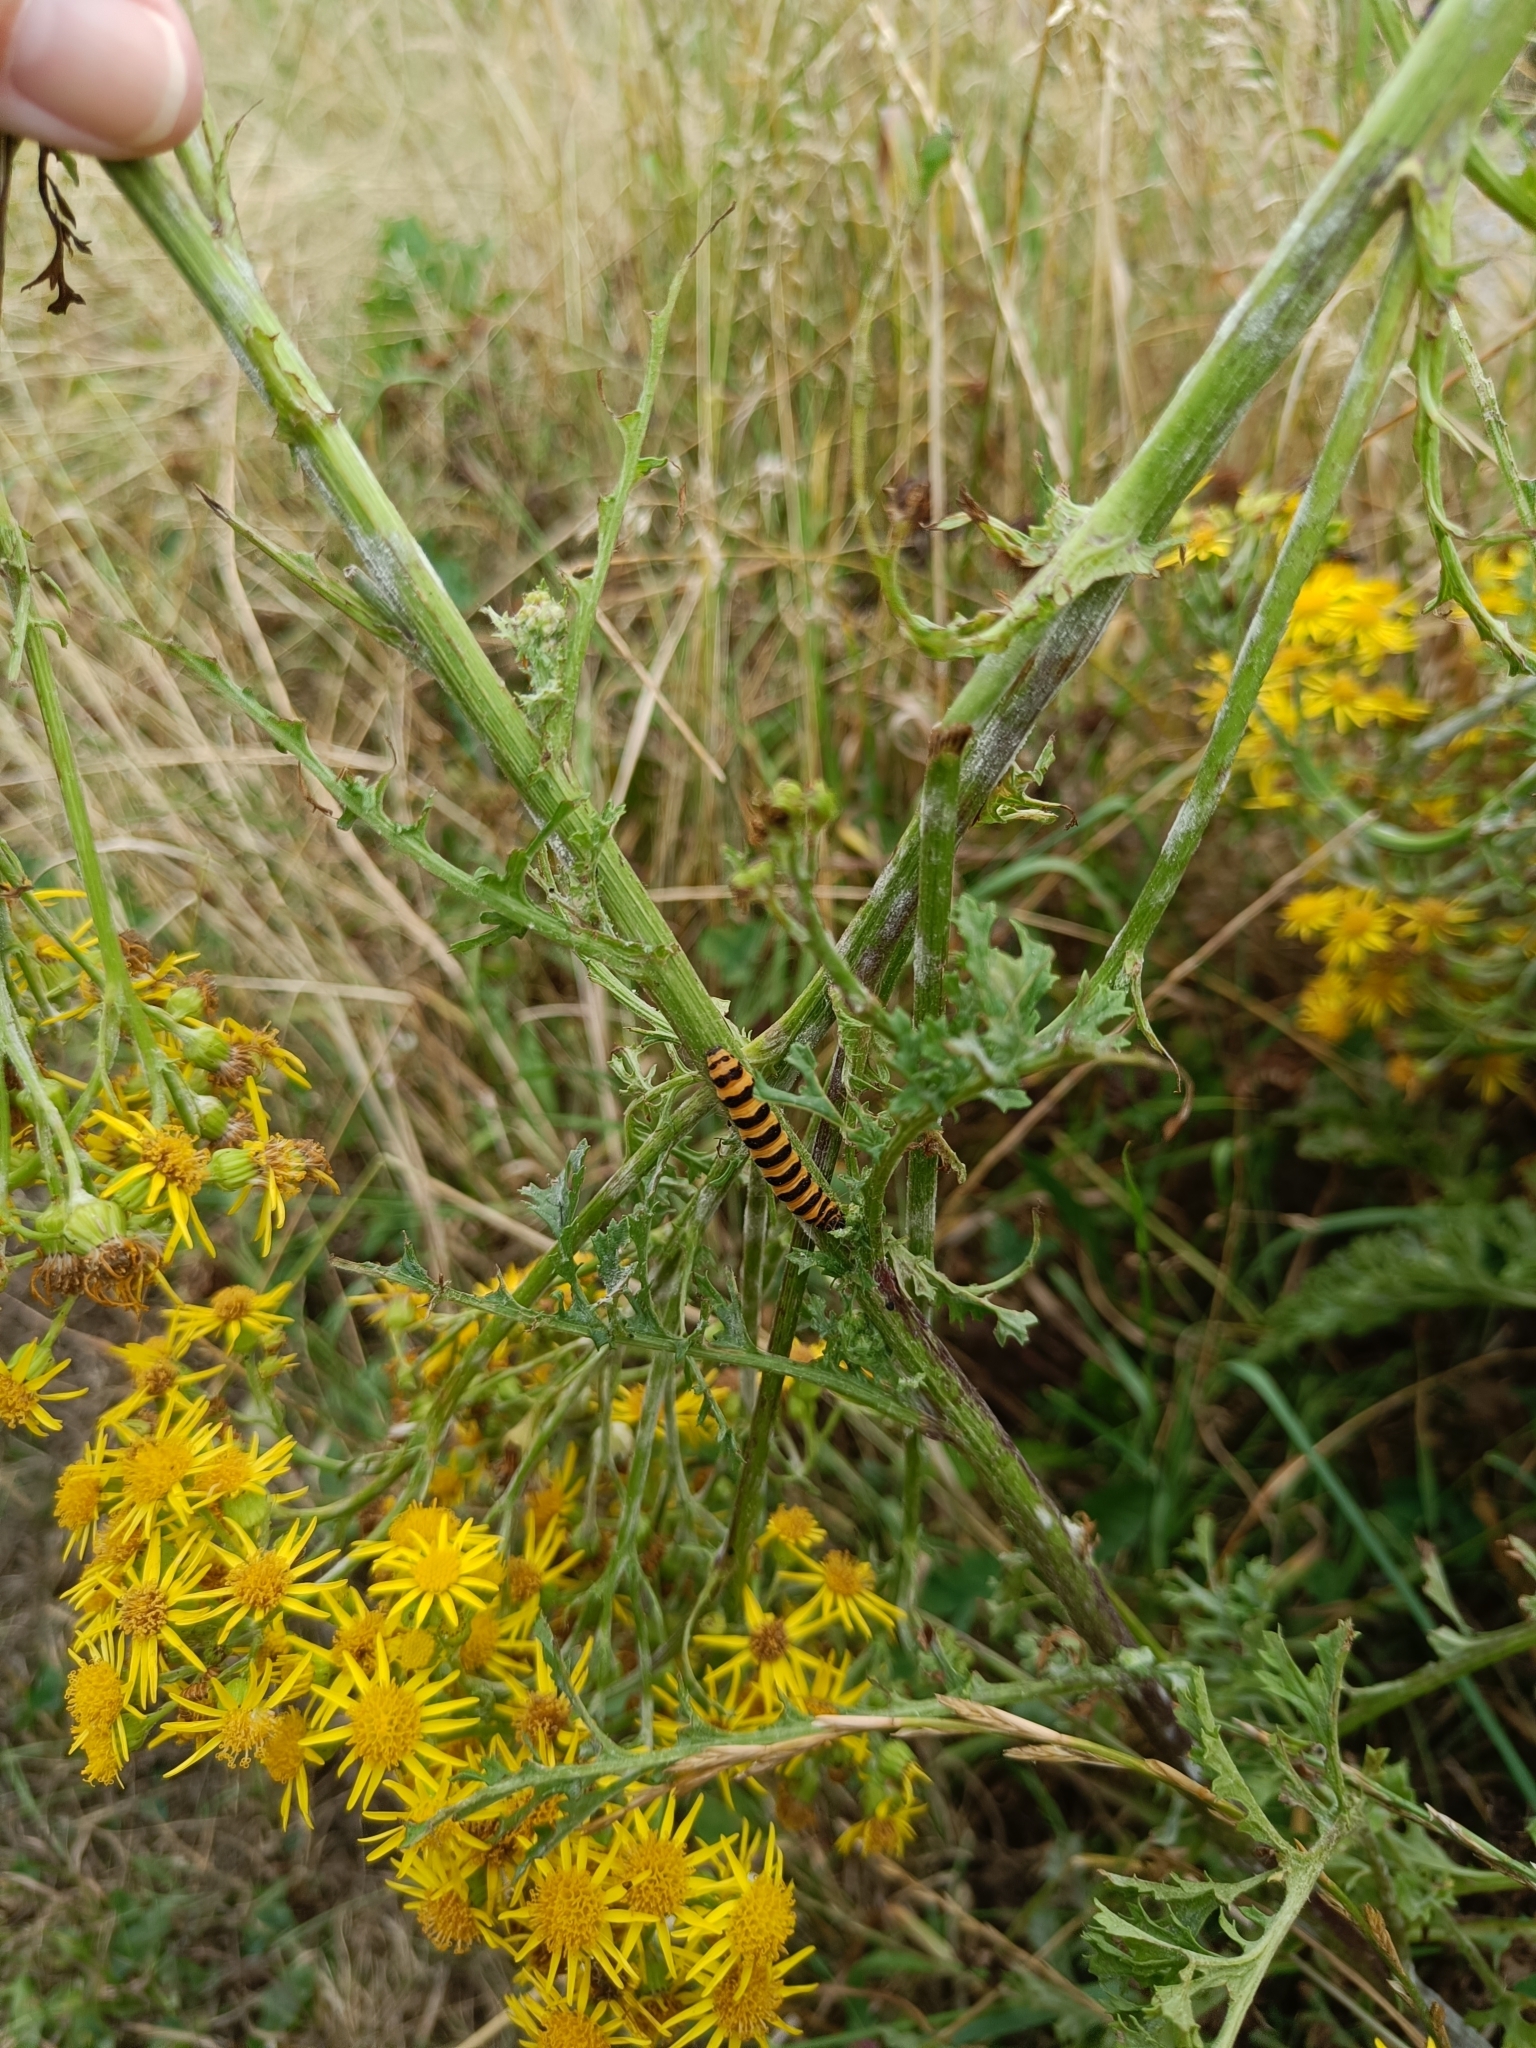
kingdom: Animalia
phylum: Arthropoda
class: Insecta
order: Lepidoptera
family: Erebidae
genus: Tyria
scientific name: Tyria jacobaeae
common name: Cinnabar
